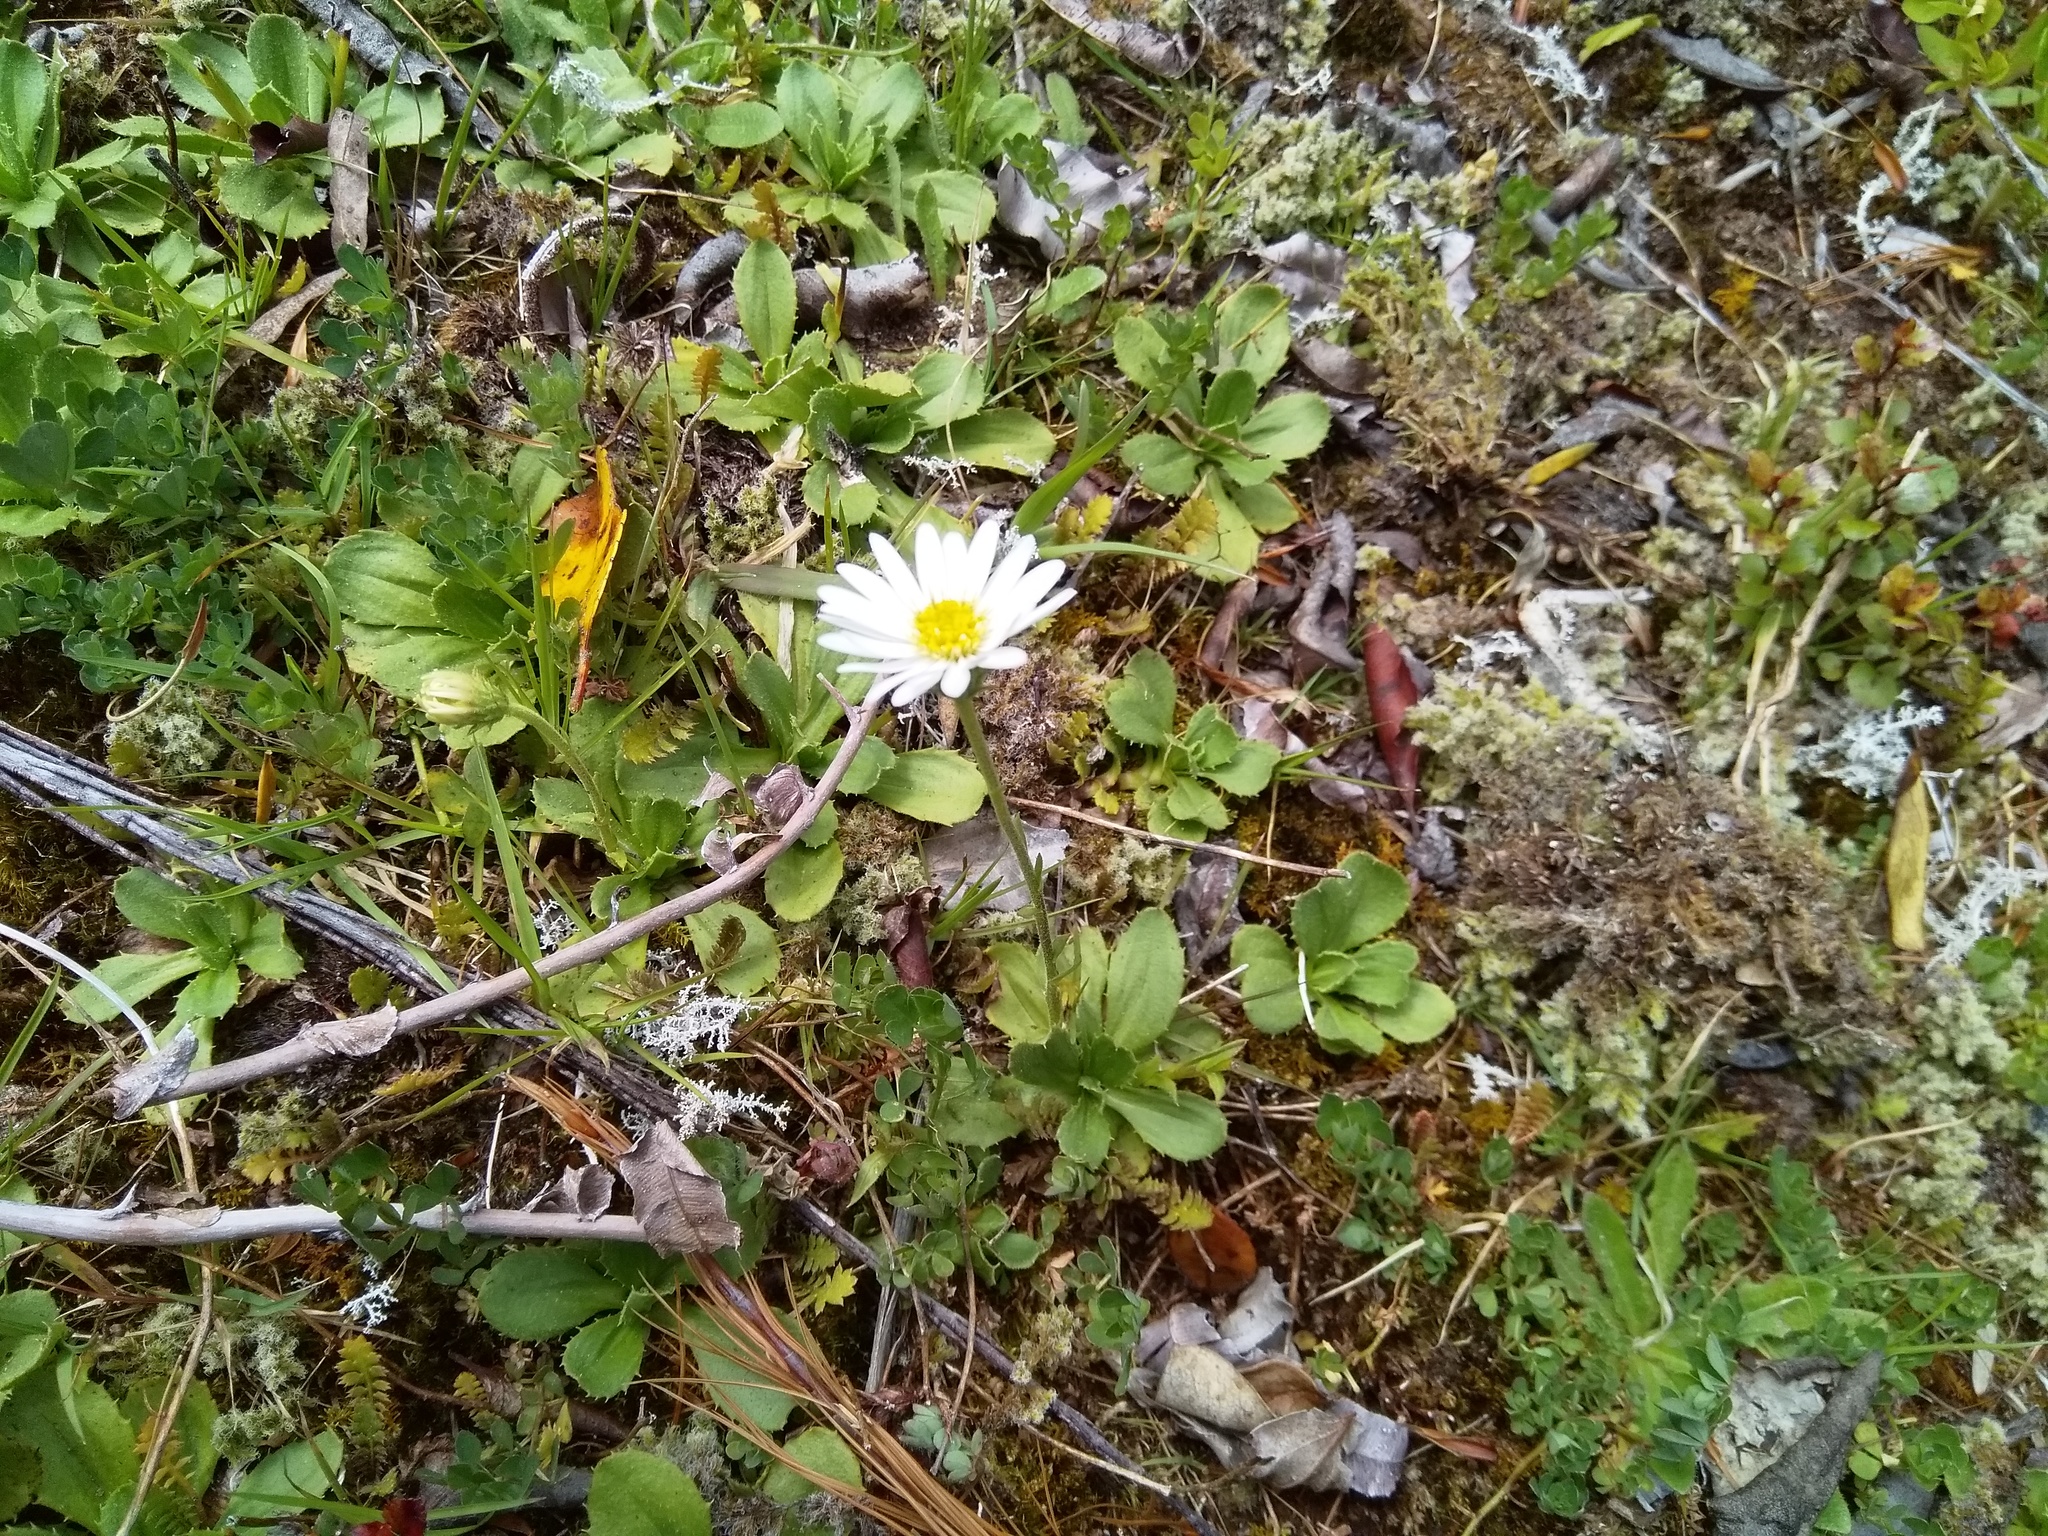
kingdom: Plantae
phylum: Tracheophyta
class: Magnoliopsida
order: Asterales
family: Asteraceae
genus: Celmisia
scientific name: Celmisia glandulosa
